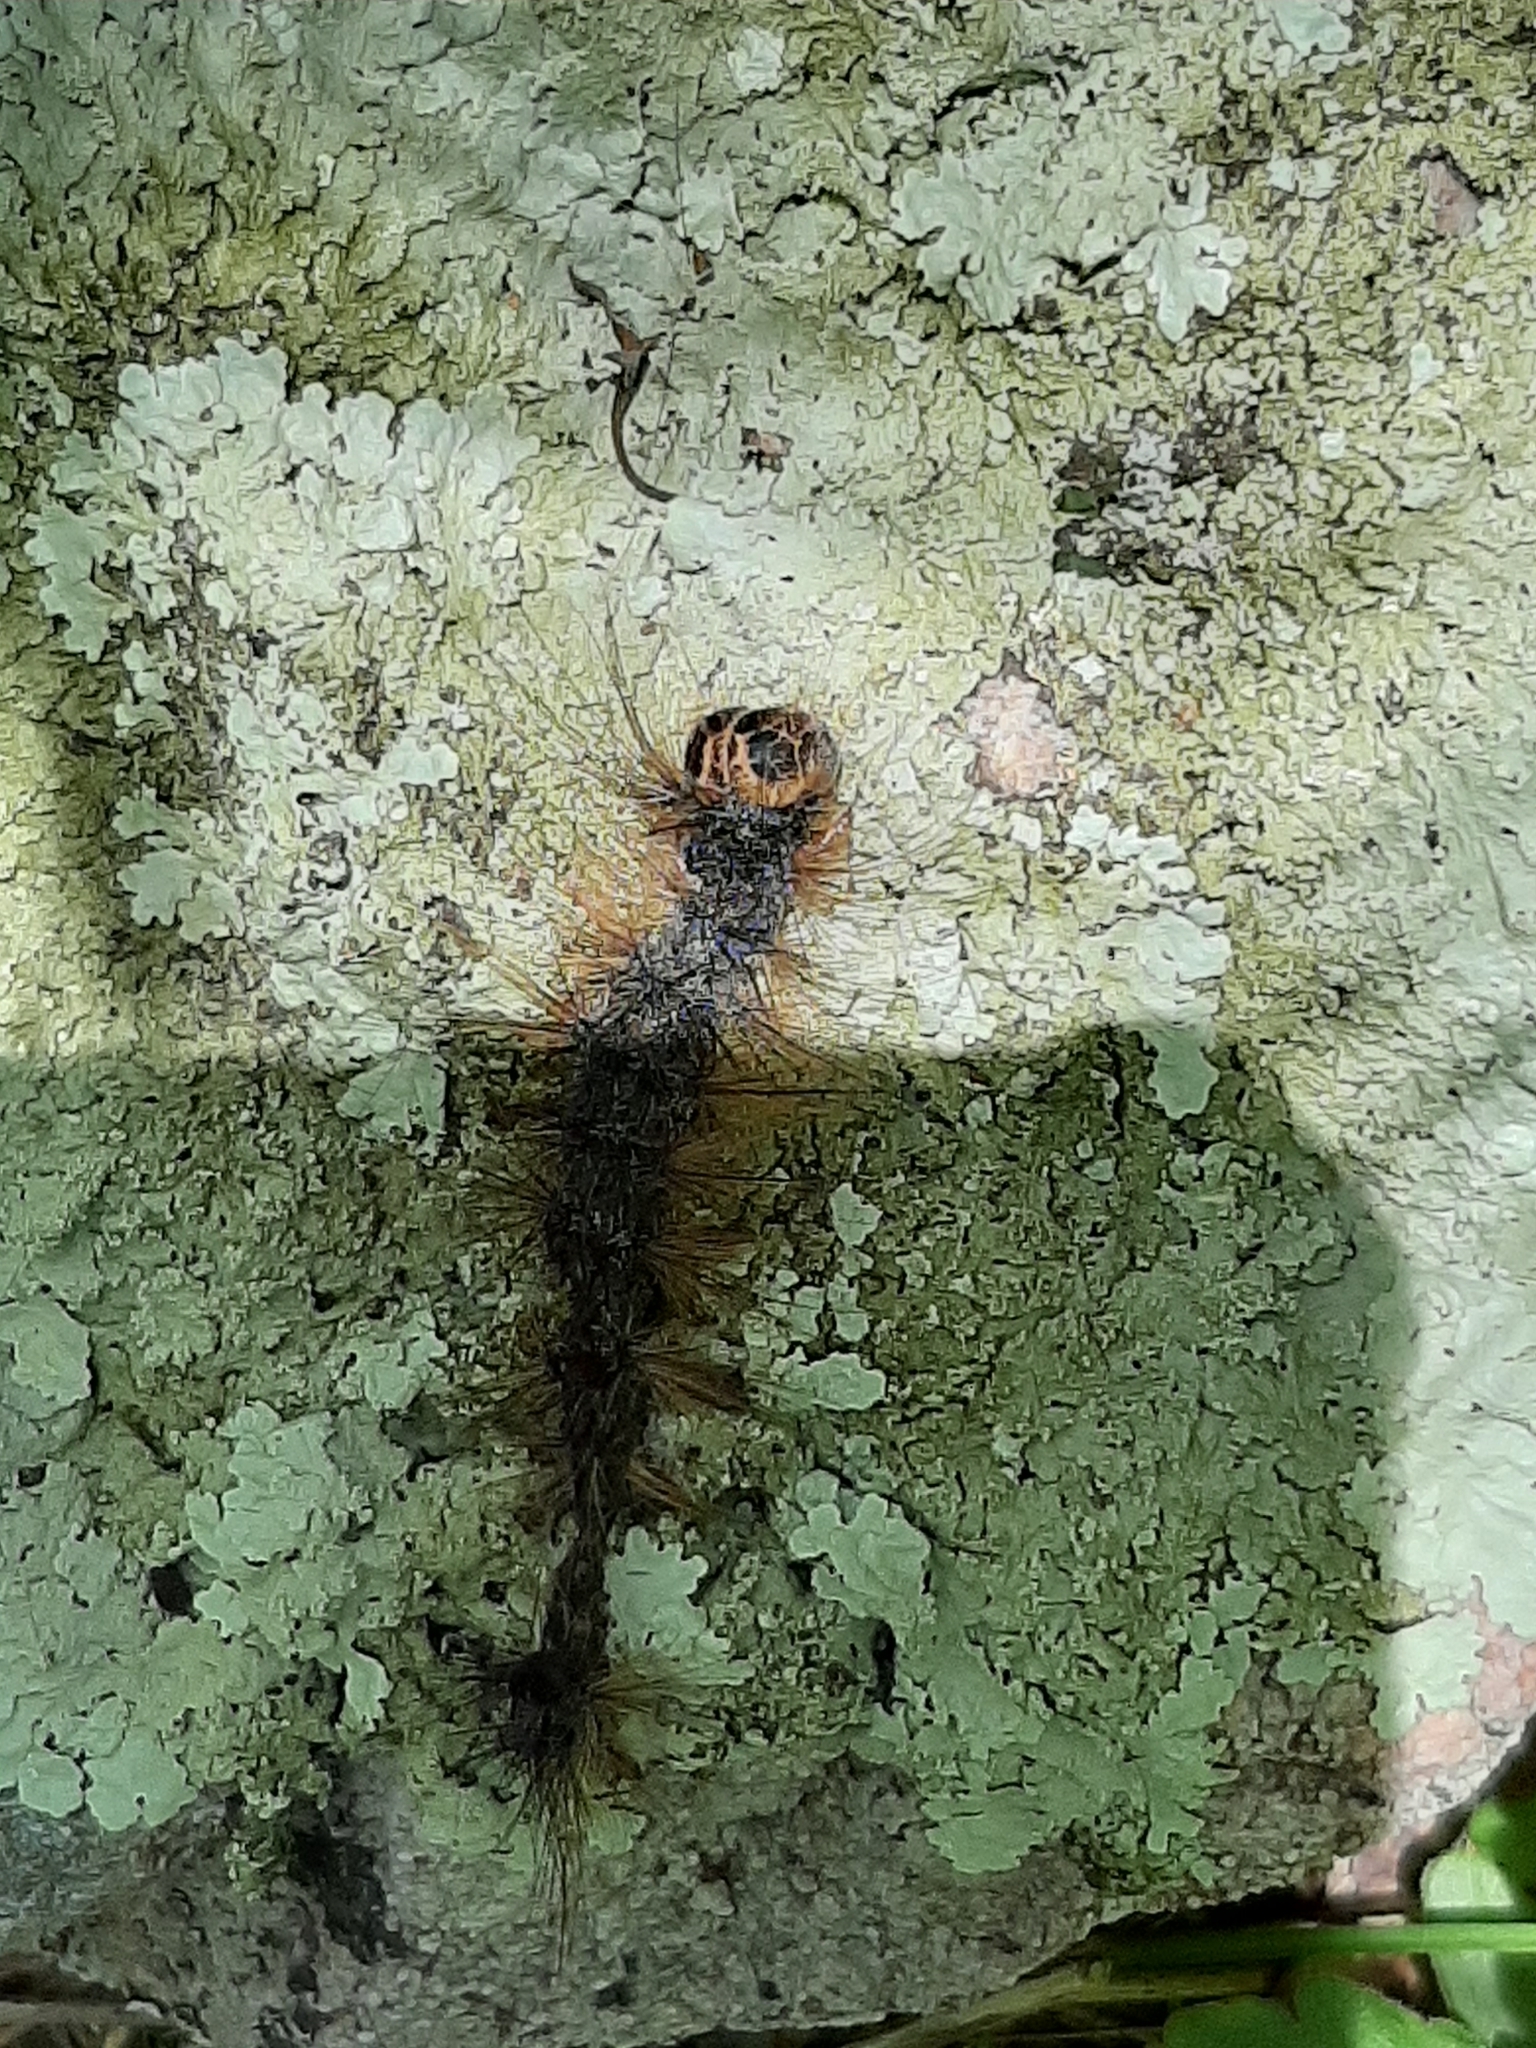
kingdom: Animalia
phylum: Arthropoda
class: Insecta
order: Lepidoptera
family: Erebidae
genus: Lymantria
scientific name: Lymantria dispar
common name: Gypsy moth
